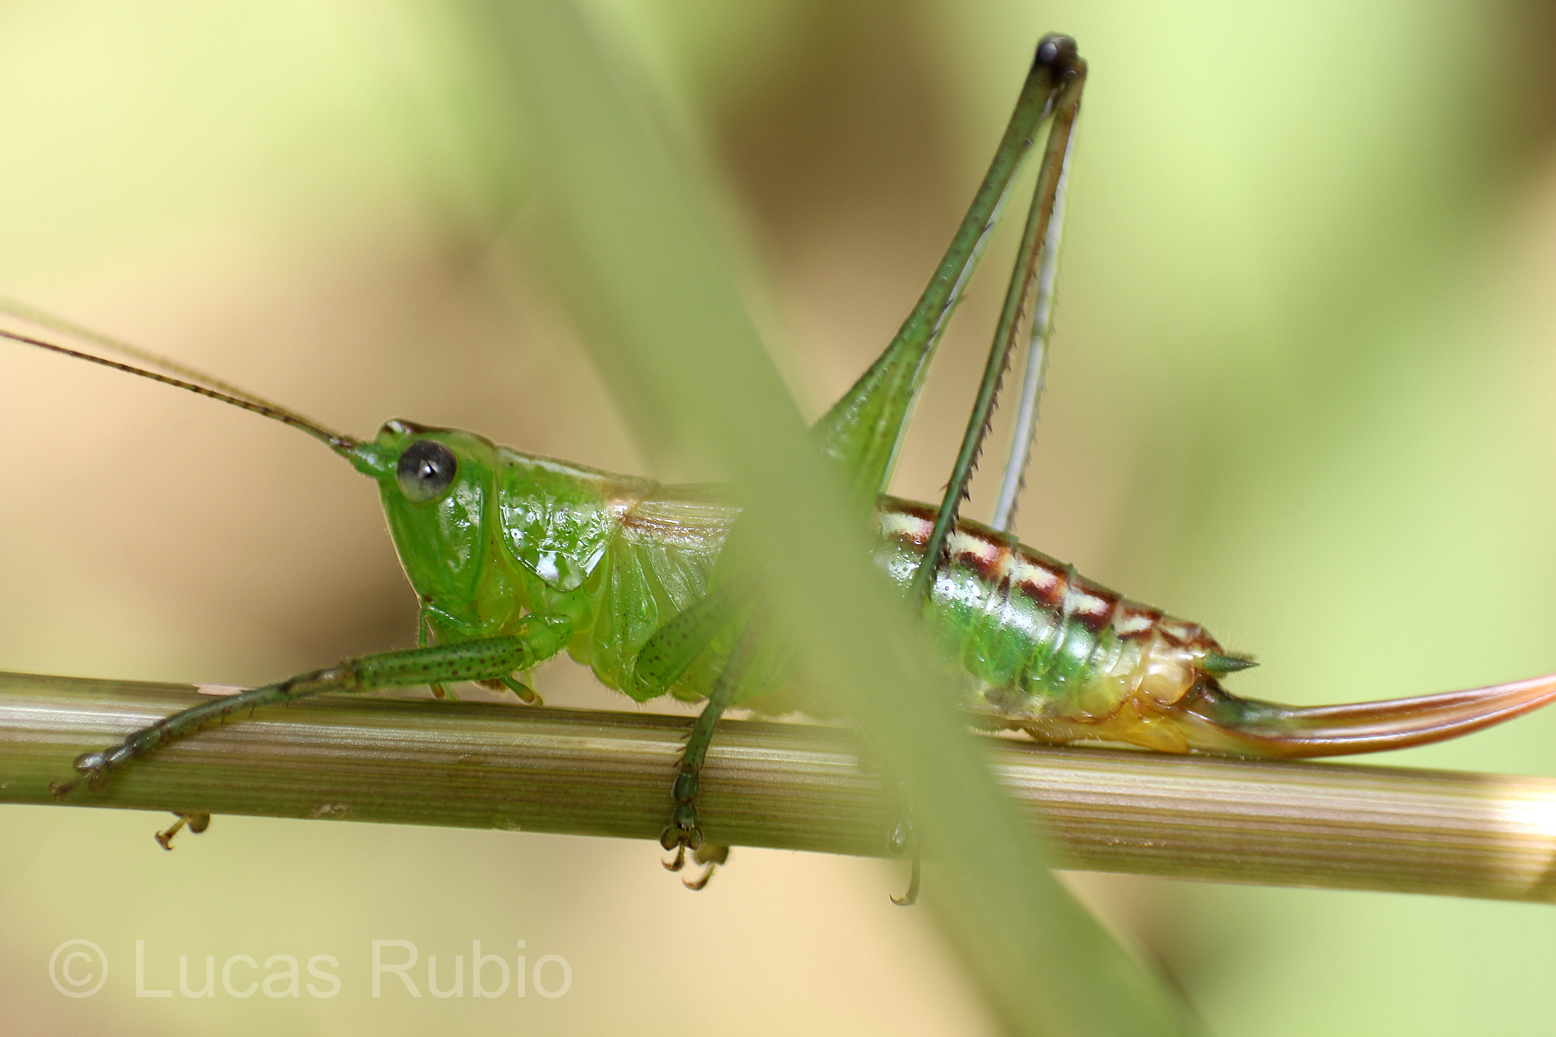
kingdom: Animalia
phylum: Arthropoda
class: Insecta
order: Orthoptera
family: Tettigoniidae
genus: Conocephalus
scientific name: Conocephalus ochrotelus
